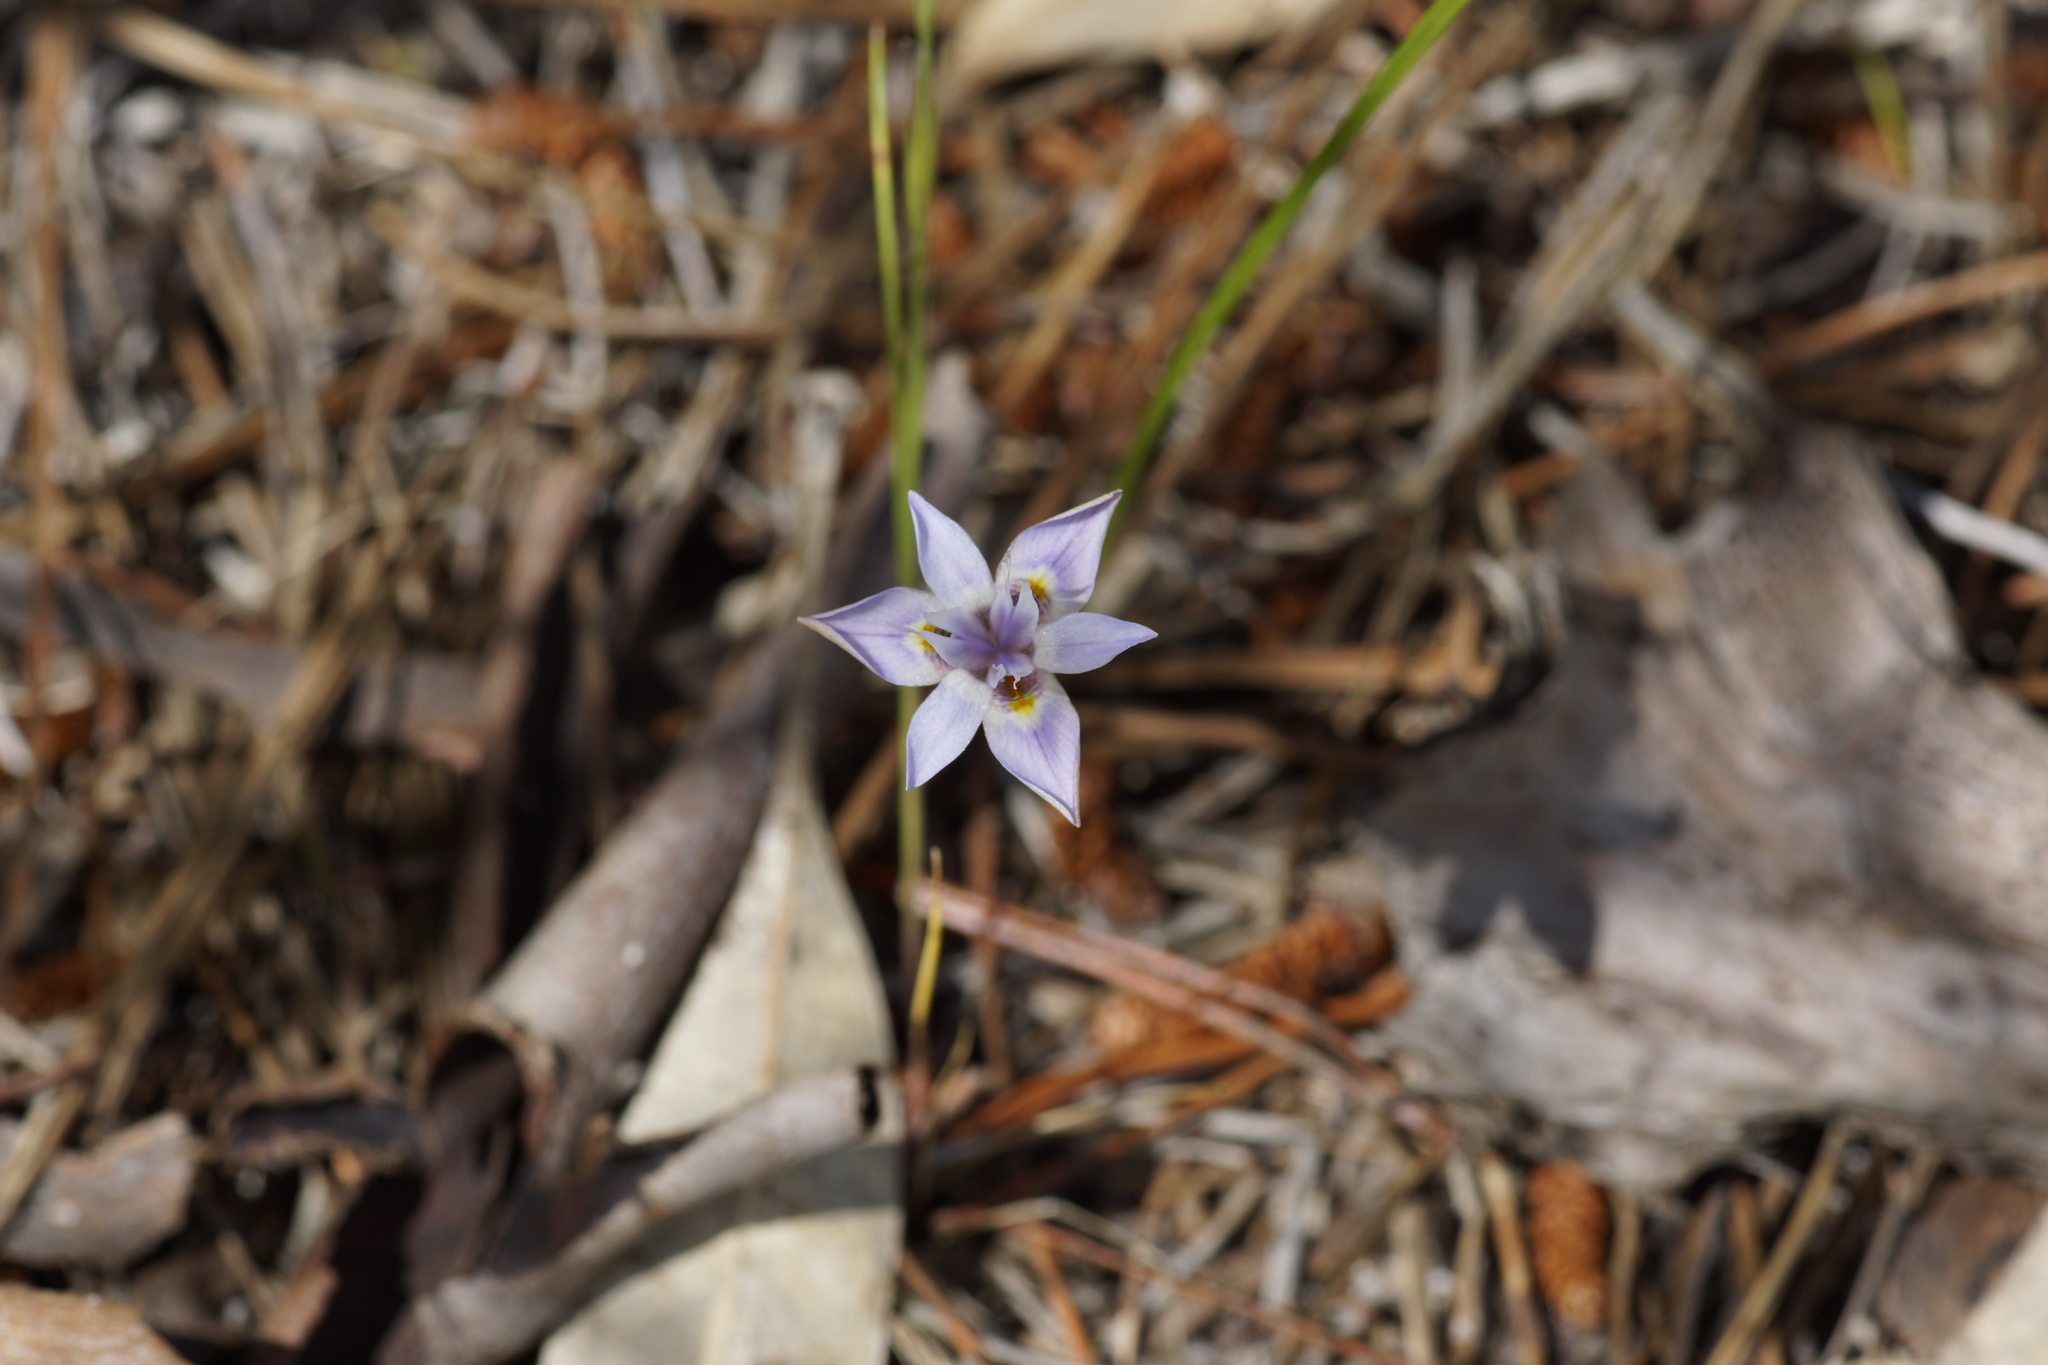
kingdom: Plantae
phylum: Tracheophyta
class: Liliopsida
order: Asparagales
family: Iridaceae
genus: Moraea
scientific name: Moraea setifolia
